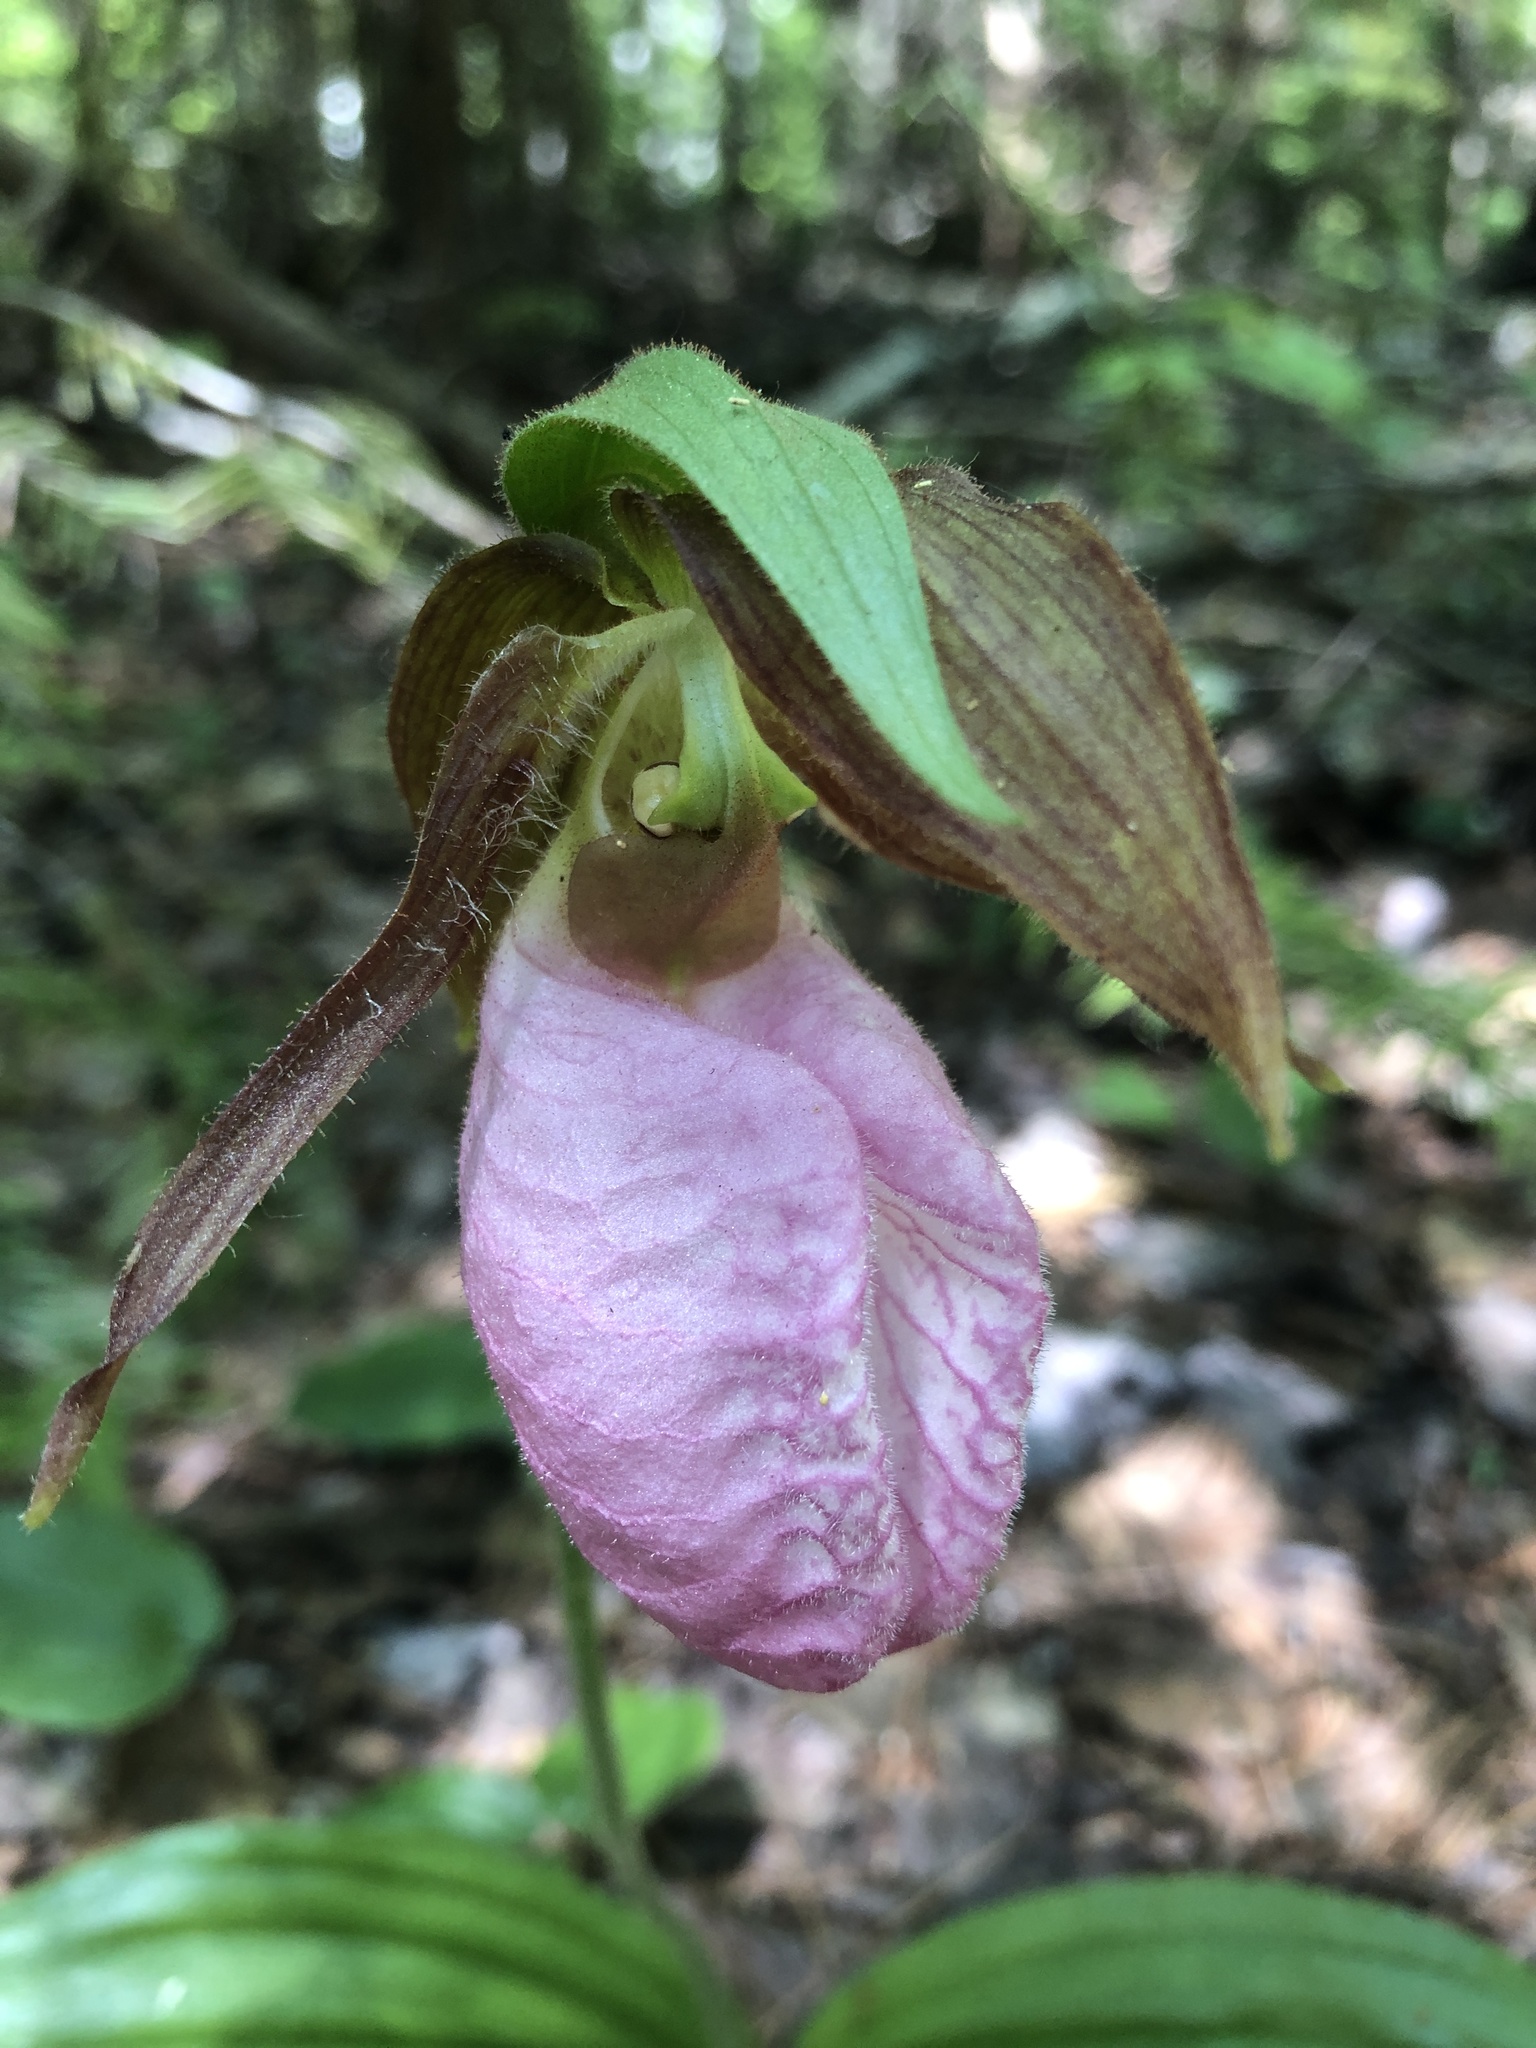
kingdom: Plantae
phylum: Tracheophyta
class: Liliopsida
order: Asparagales
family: Orchidaceae
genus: Cypripedium
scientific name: Cypripedium acaule
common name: Pink lady's-slipper
